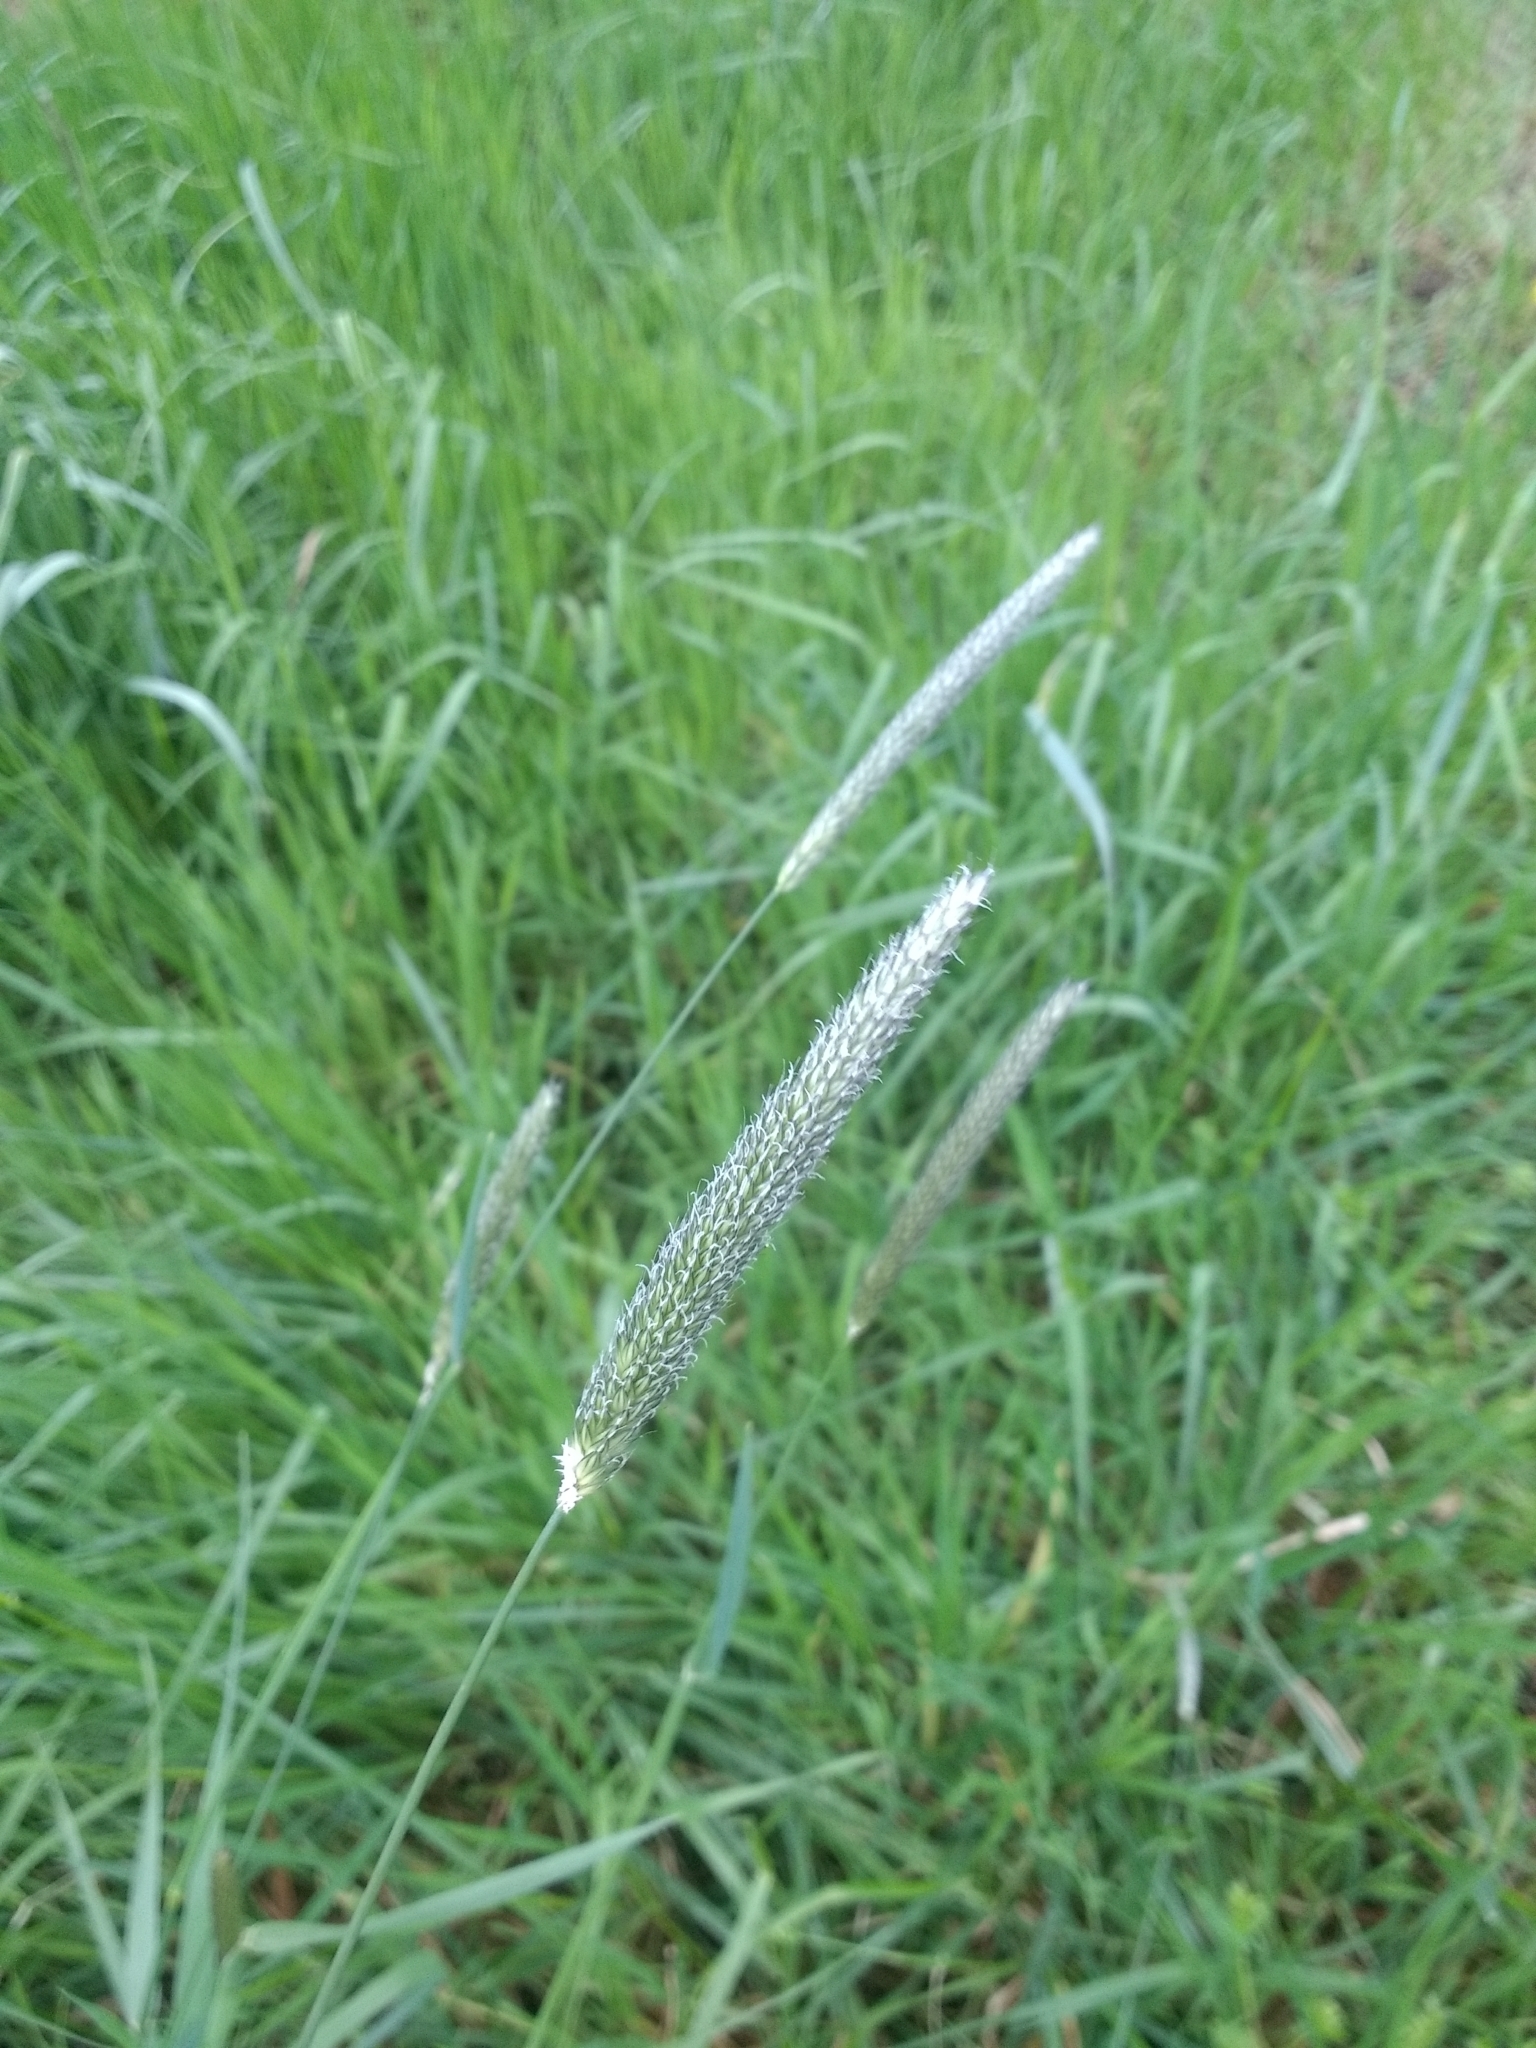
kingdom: Plantae
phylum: Tracheophyta
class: Liliopsida
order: Poales
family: Poaceae
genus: Alopecurus
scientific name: Alopecurus pratensis
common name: Meadow foxtail
